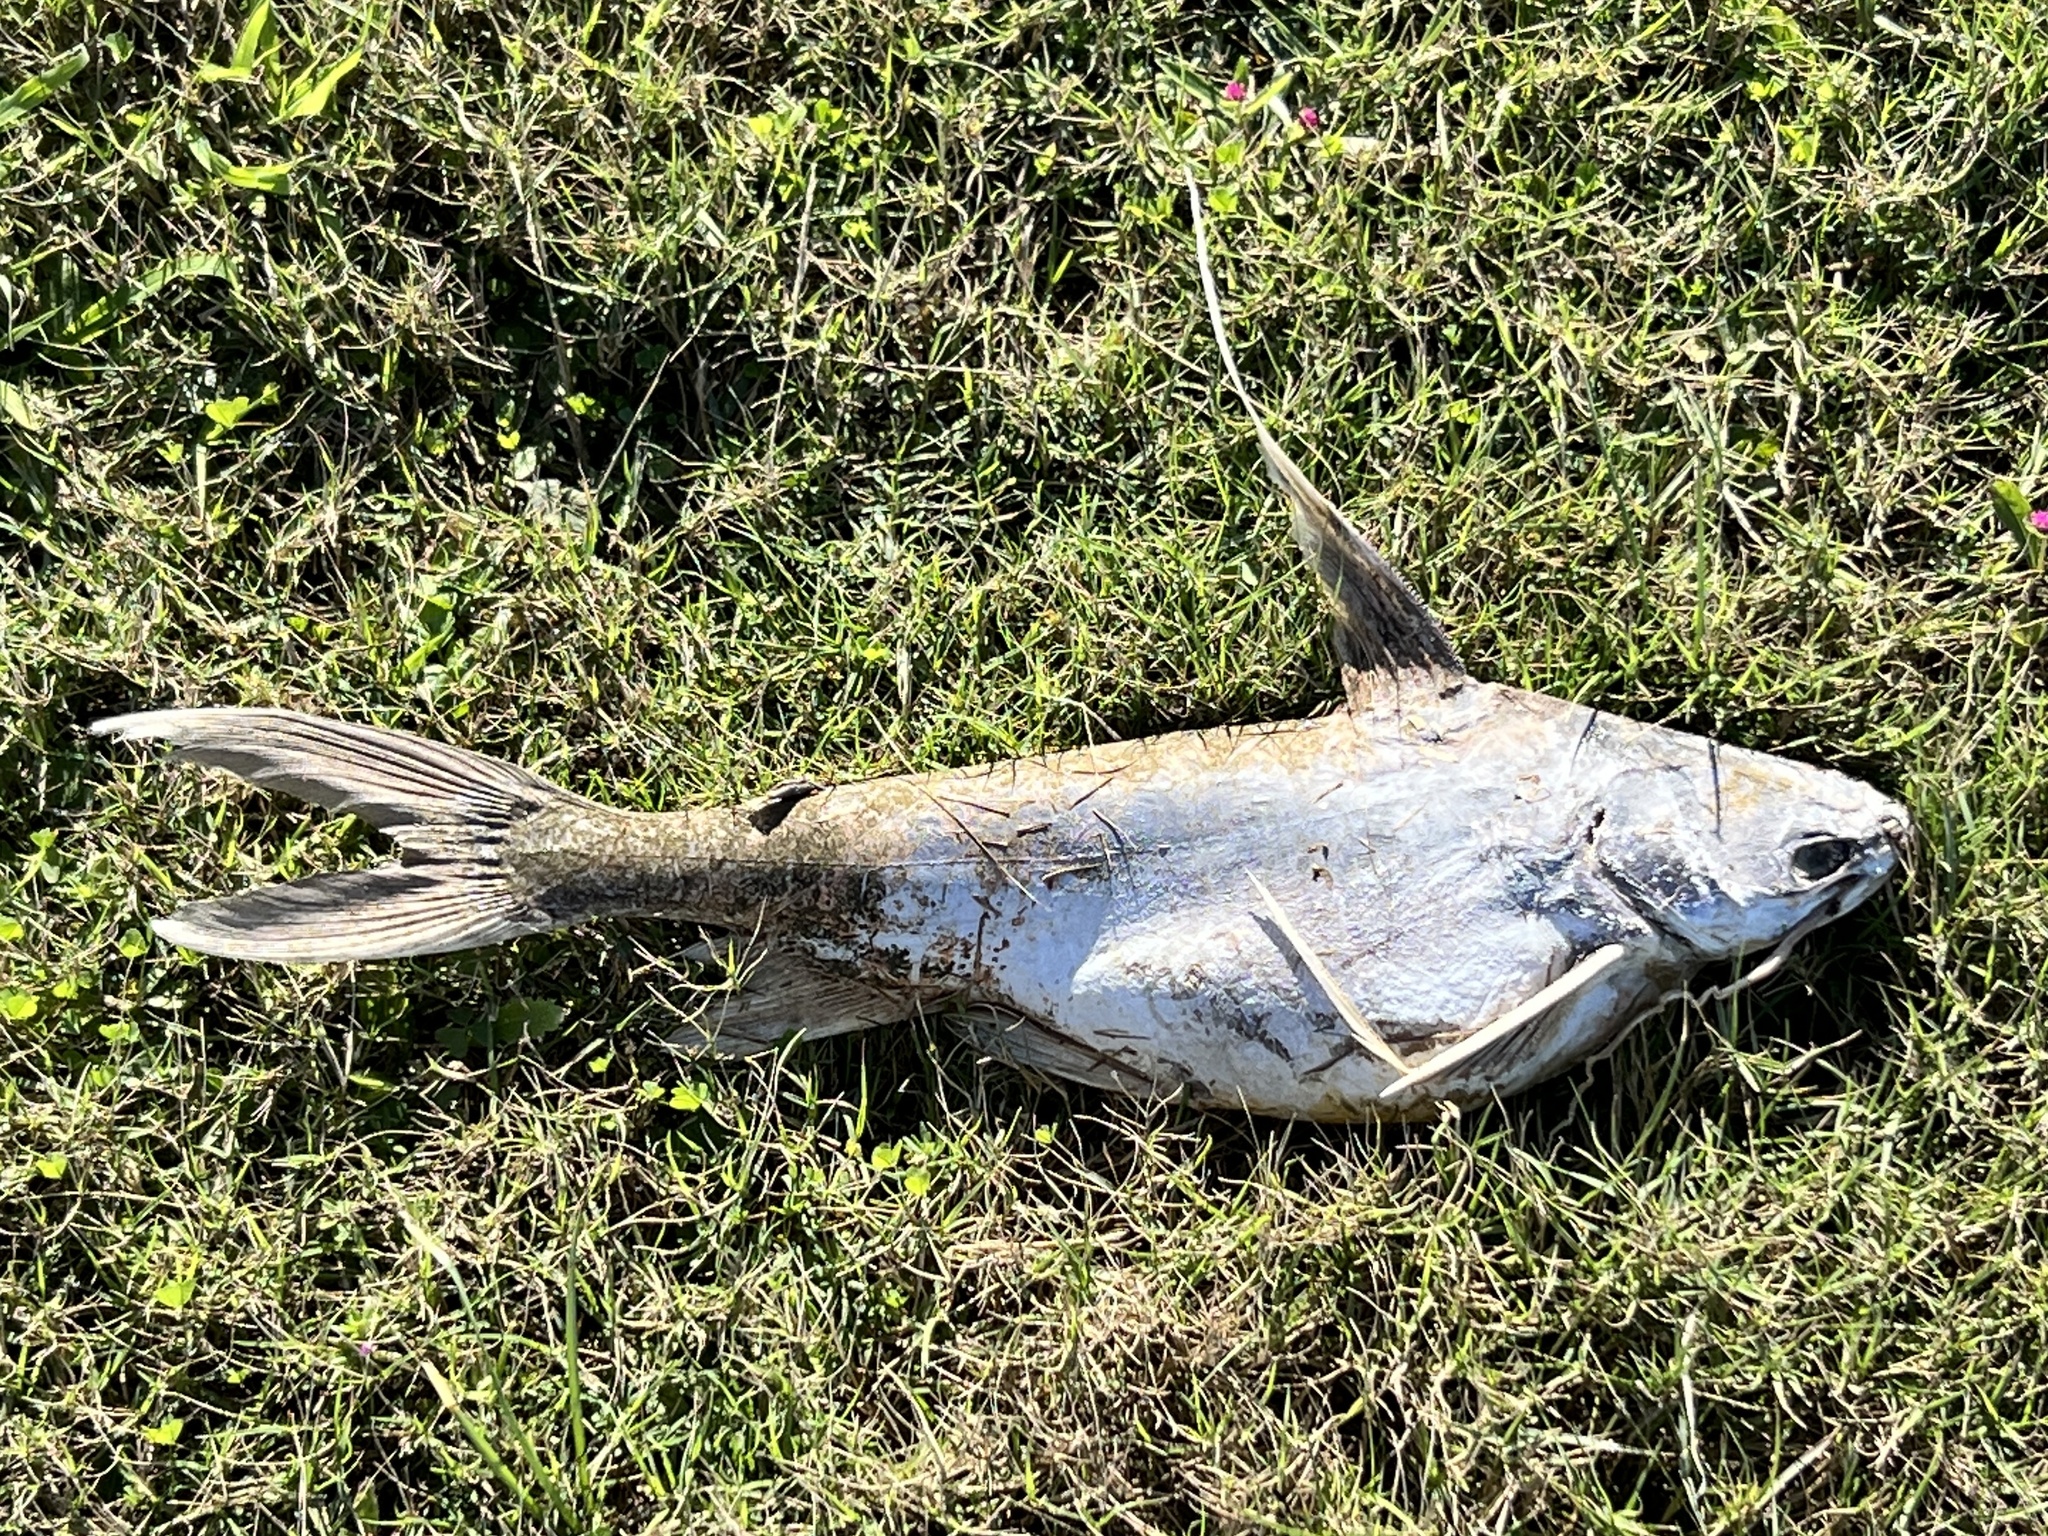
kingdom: Animalia
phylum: Chordata
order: Siluriformes
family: Ariidae
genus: Bagre
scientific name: Bagre marinus
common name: Gafftopsail sea catfish
